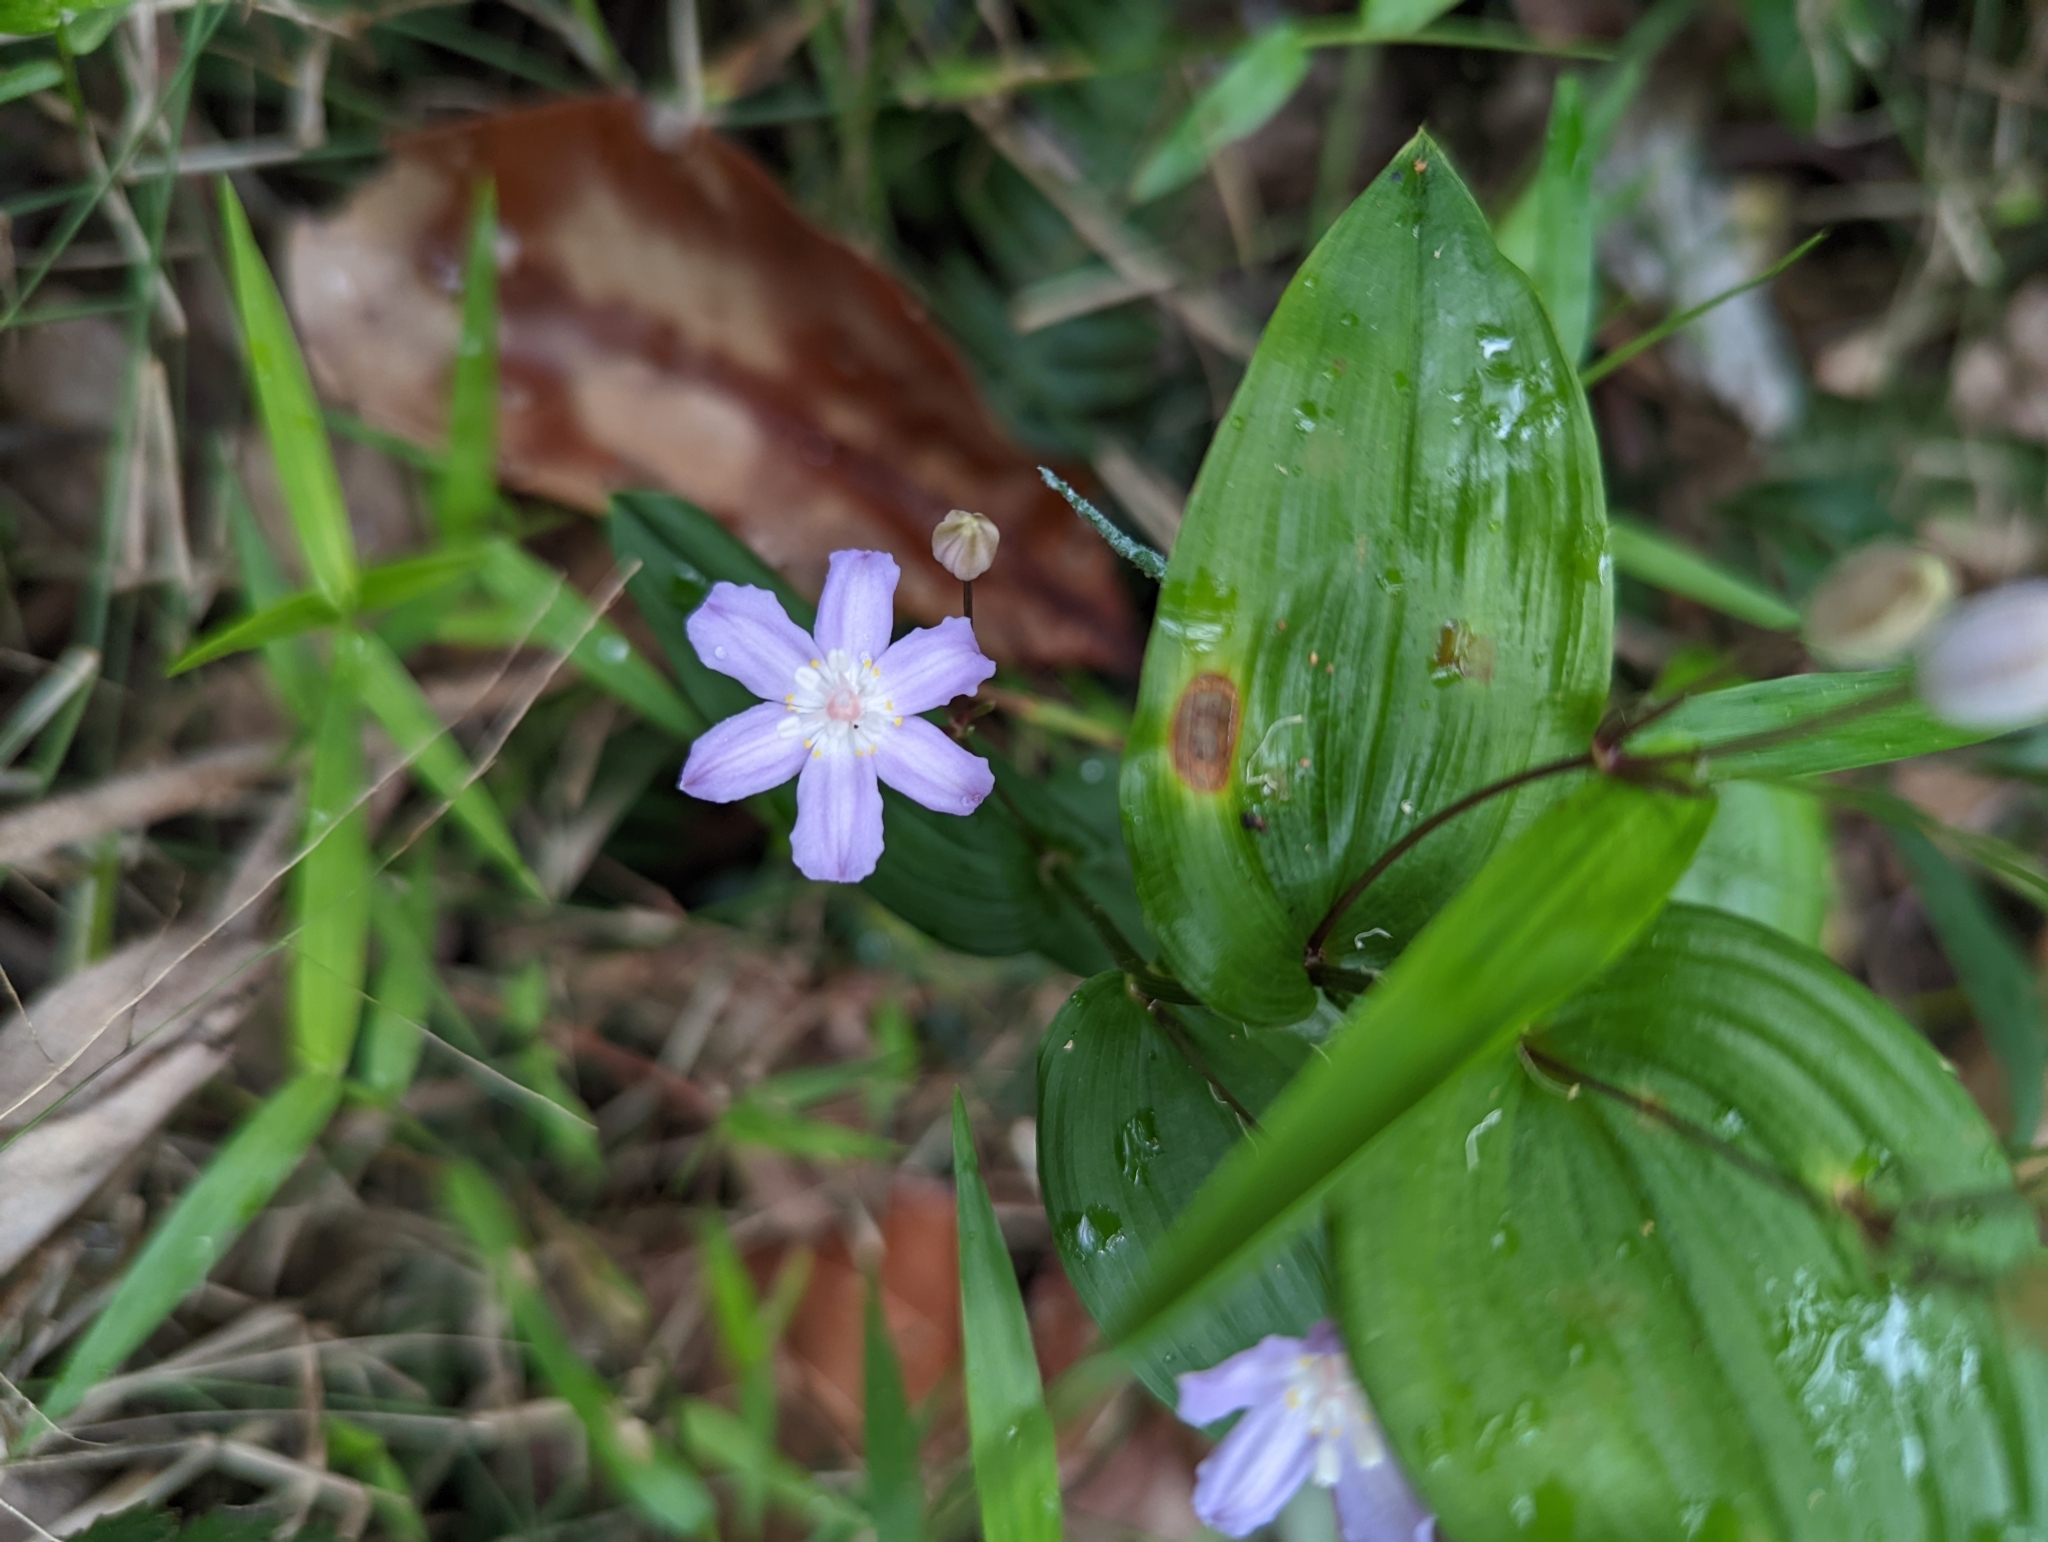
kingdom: Plantae
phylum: Tracheophyta
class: Liliopsida
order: Liliales
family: Colchicaceae
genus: Tripladenia
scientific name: Tripladenia cunninghamii
